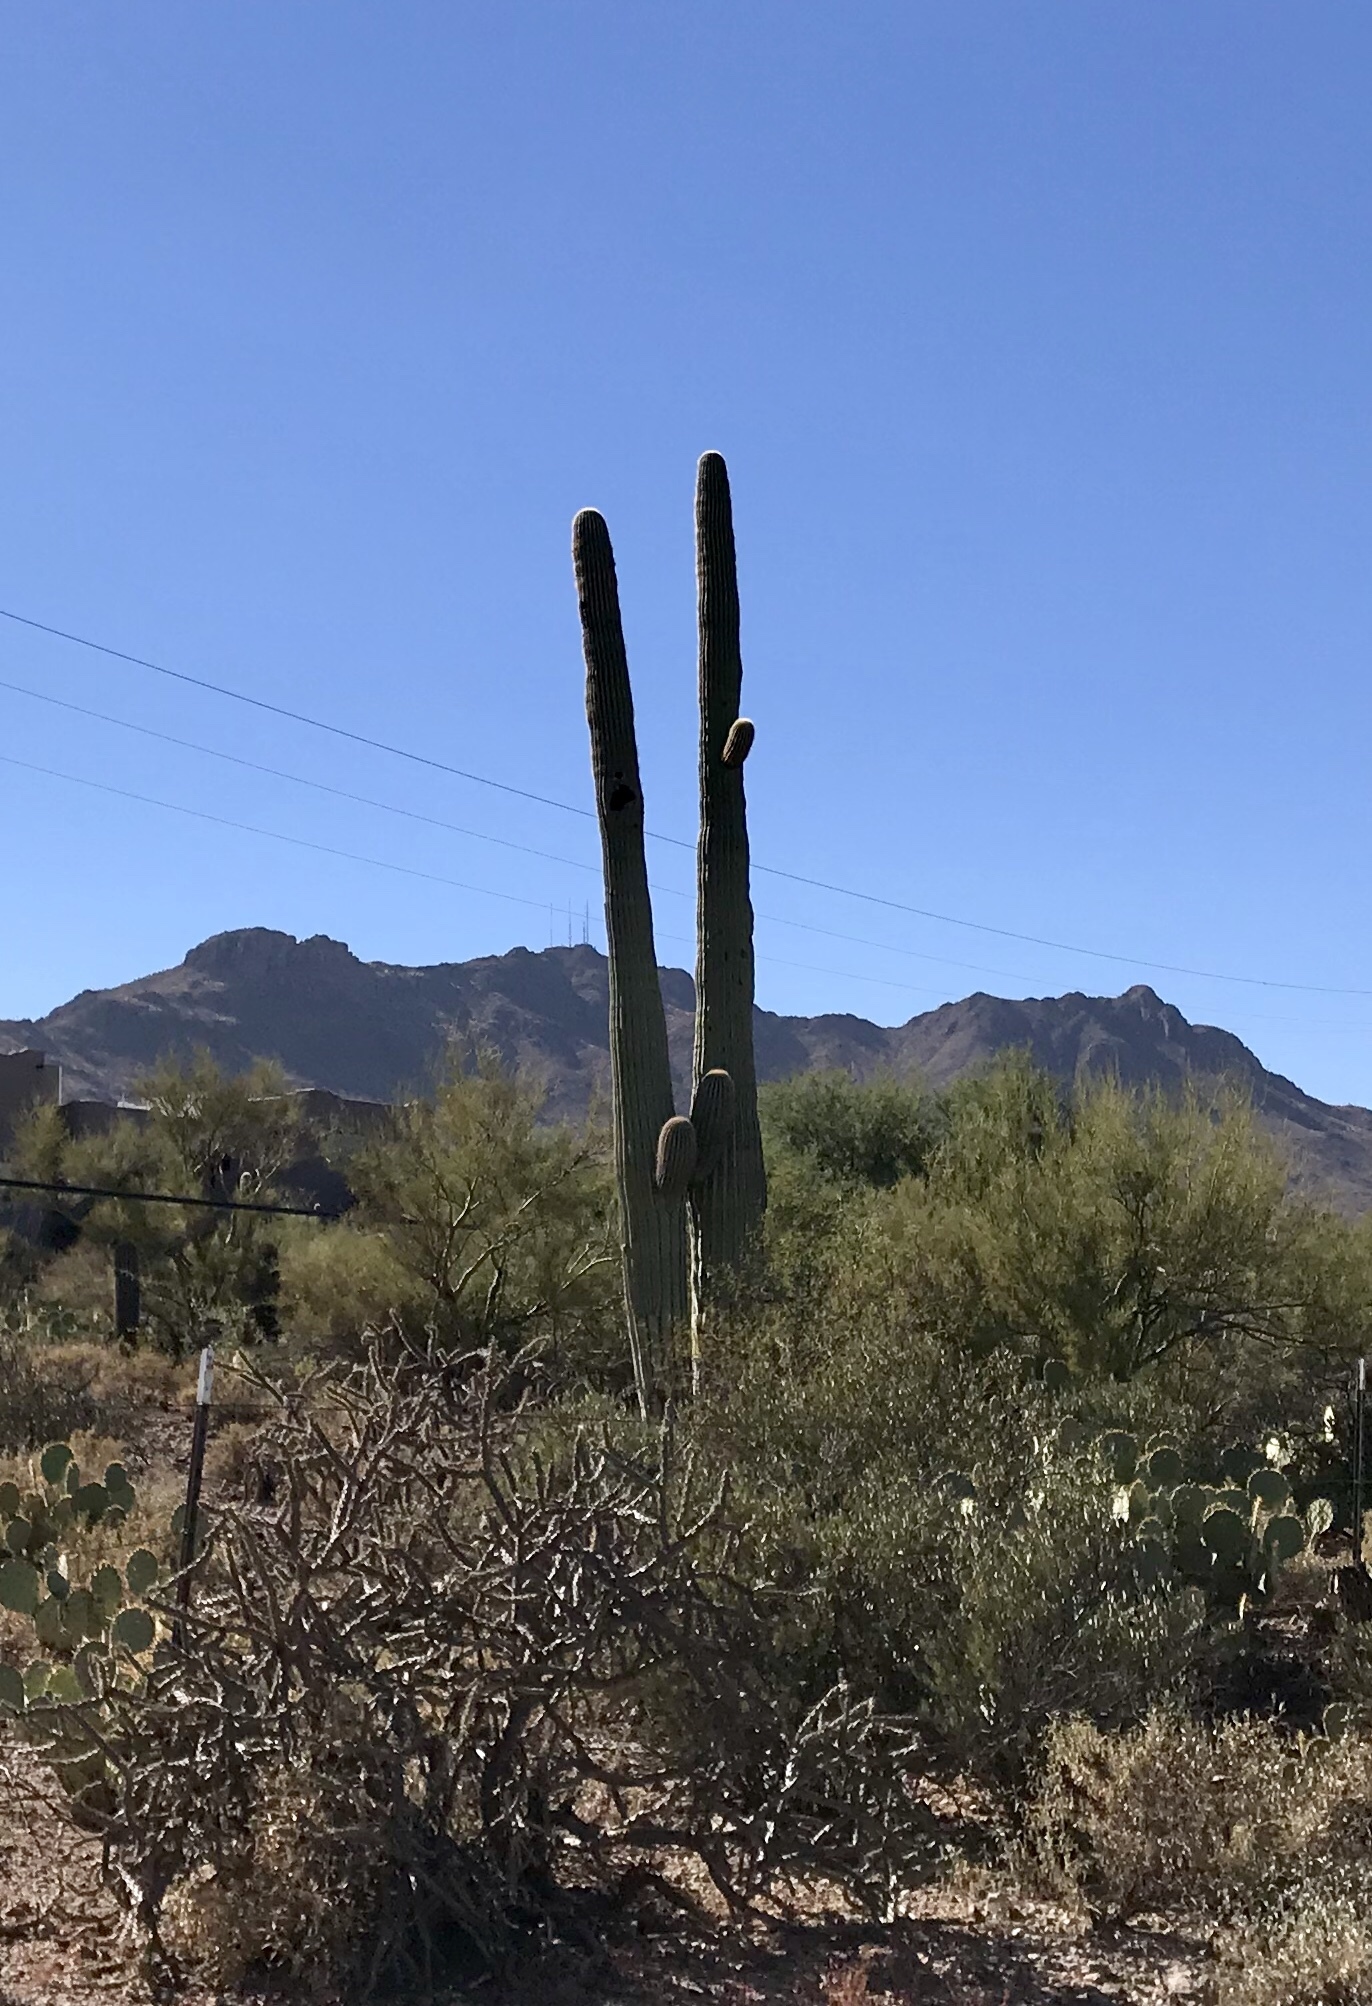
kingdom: Plantae
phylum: Tracheophyta
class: Magnoliopsida
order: Caryophyllales
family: Cactaceae
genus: Carnegiea
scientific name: Carnegiea gigantea
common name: Saguaro
